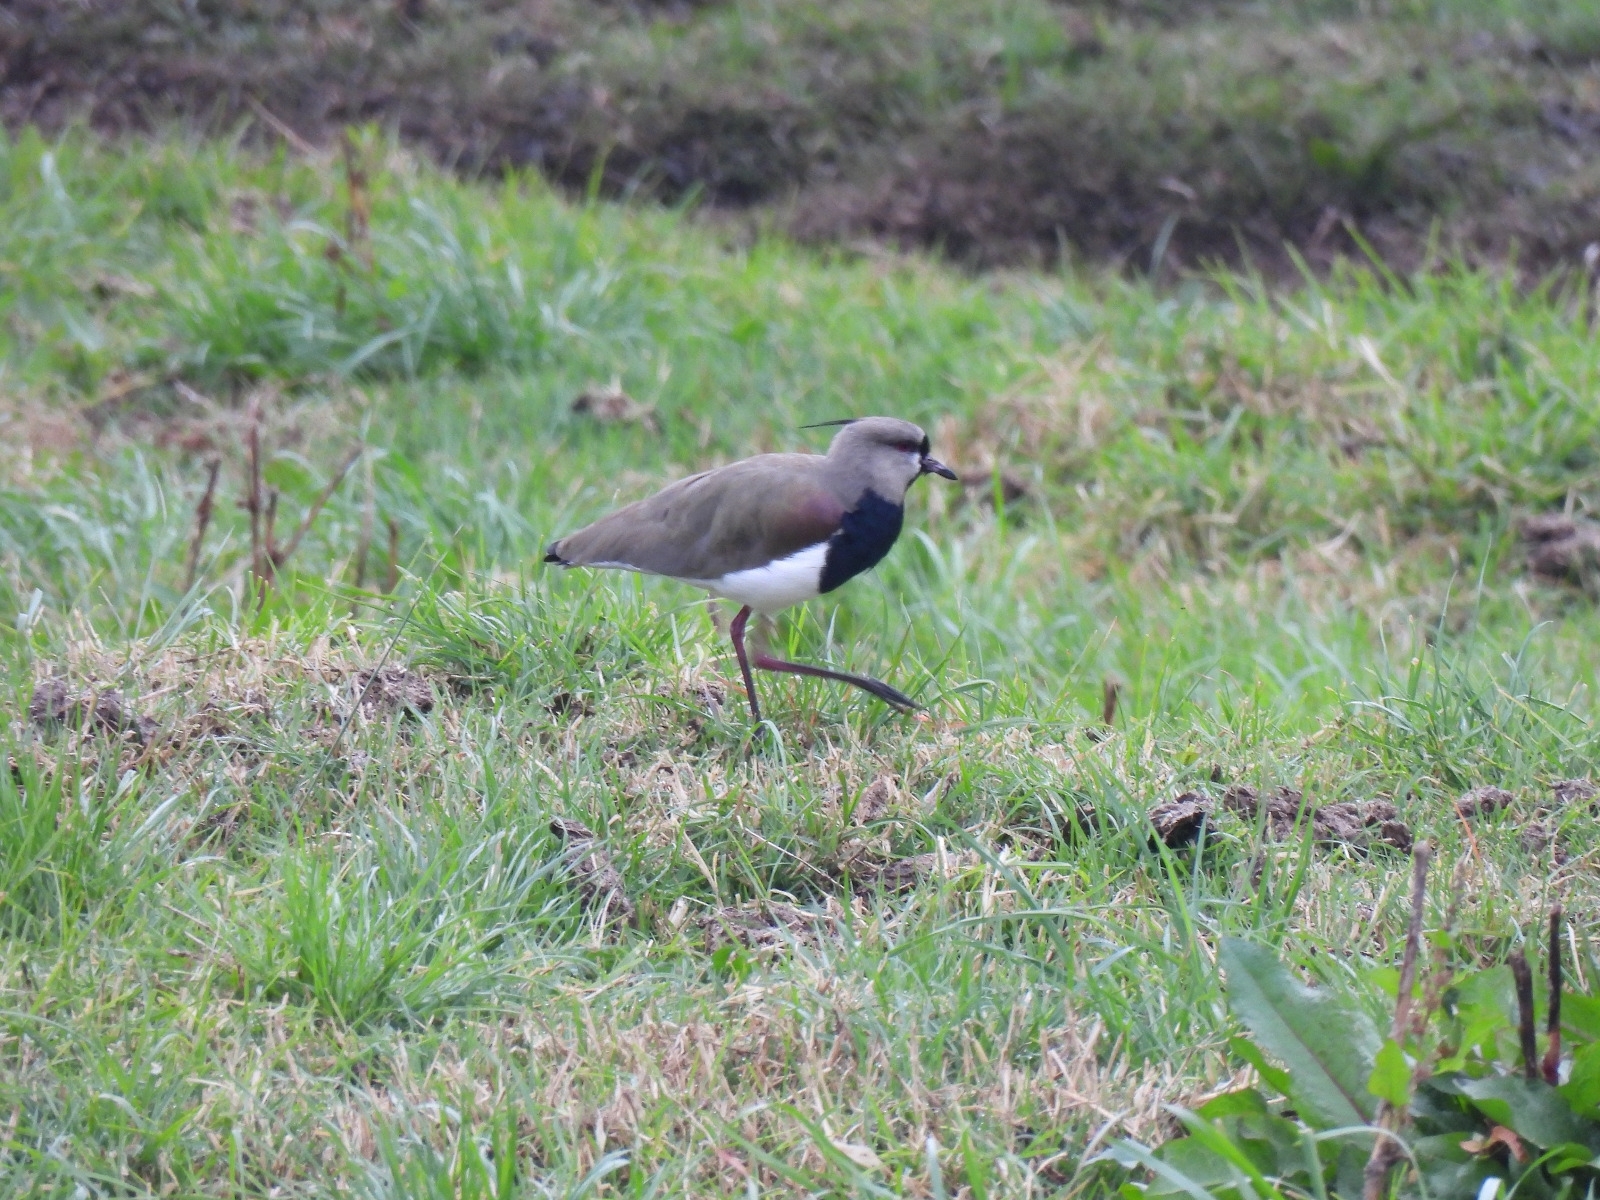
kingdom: Animalia
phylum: Chordata
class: Aves
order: Charadriiformes
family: Charadriidae
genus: Vanellus
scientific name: Vanellus chilensis
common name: Southern lapwing
